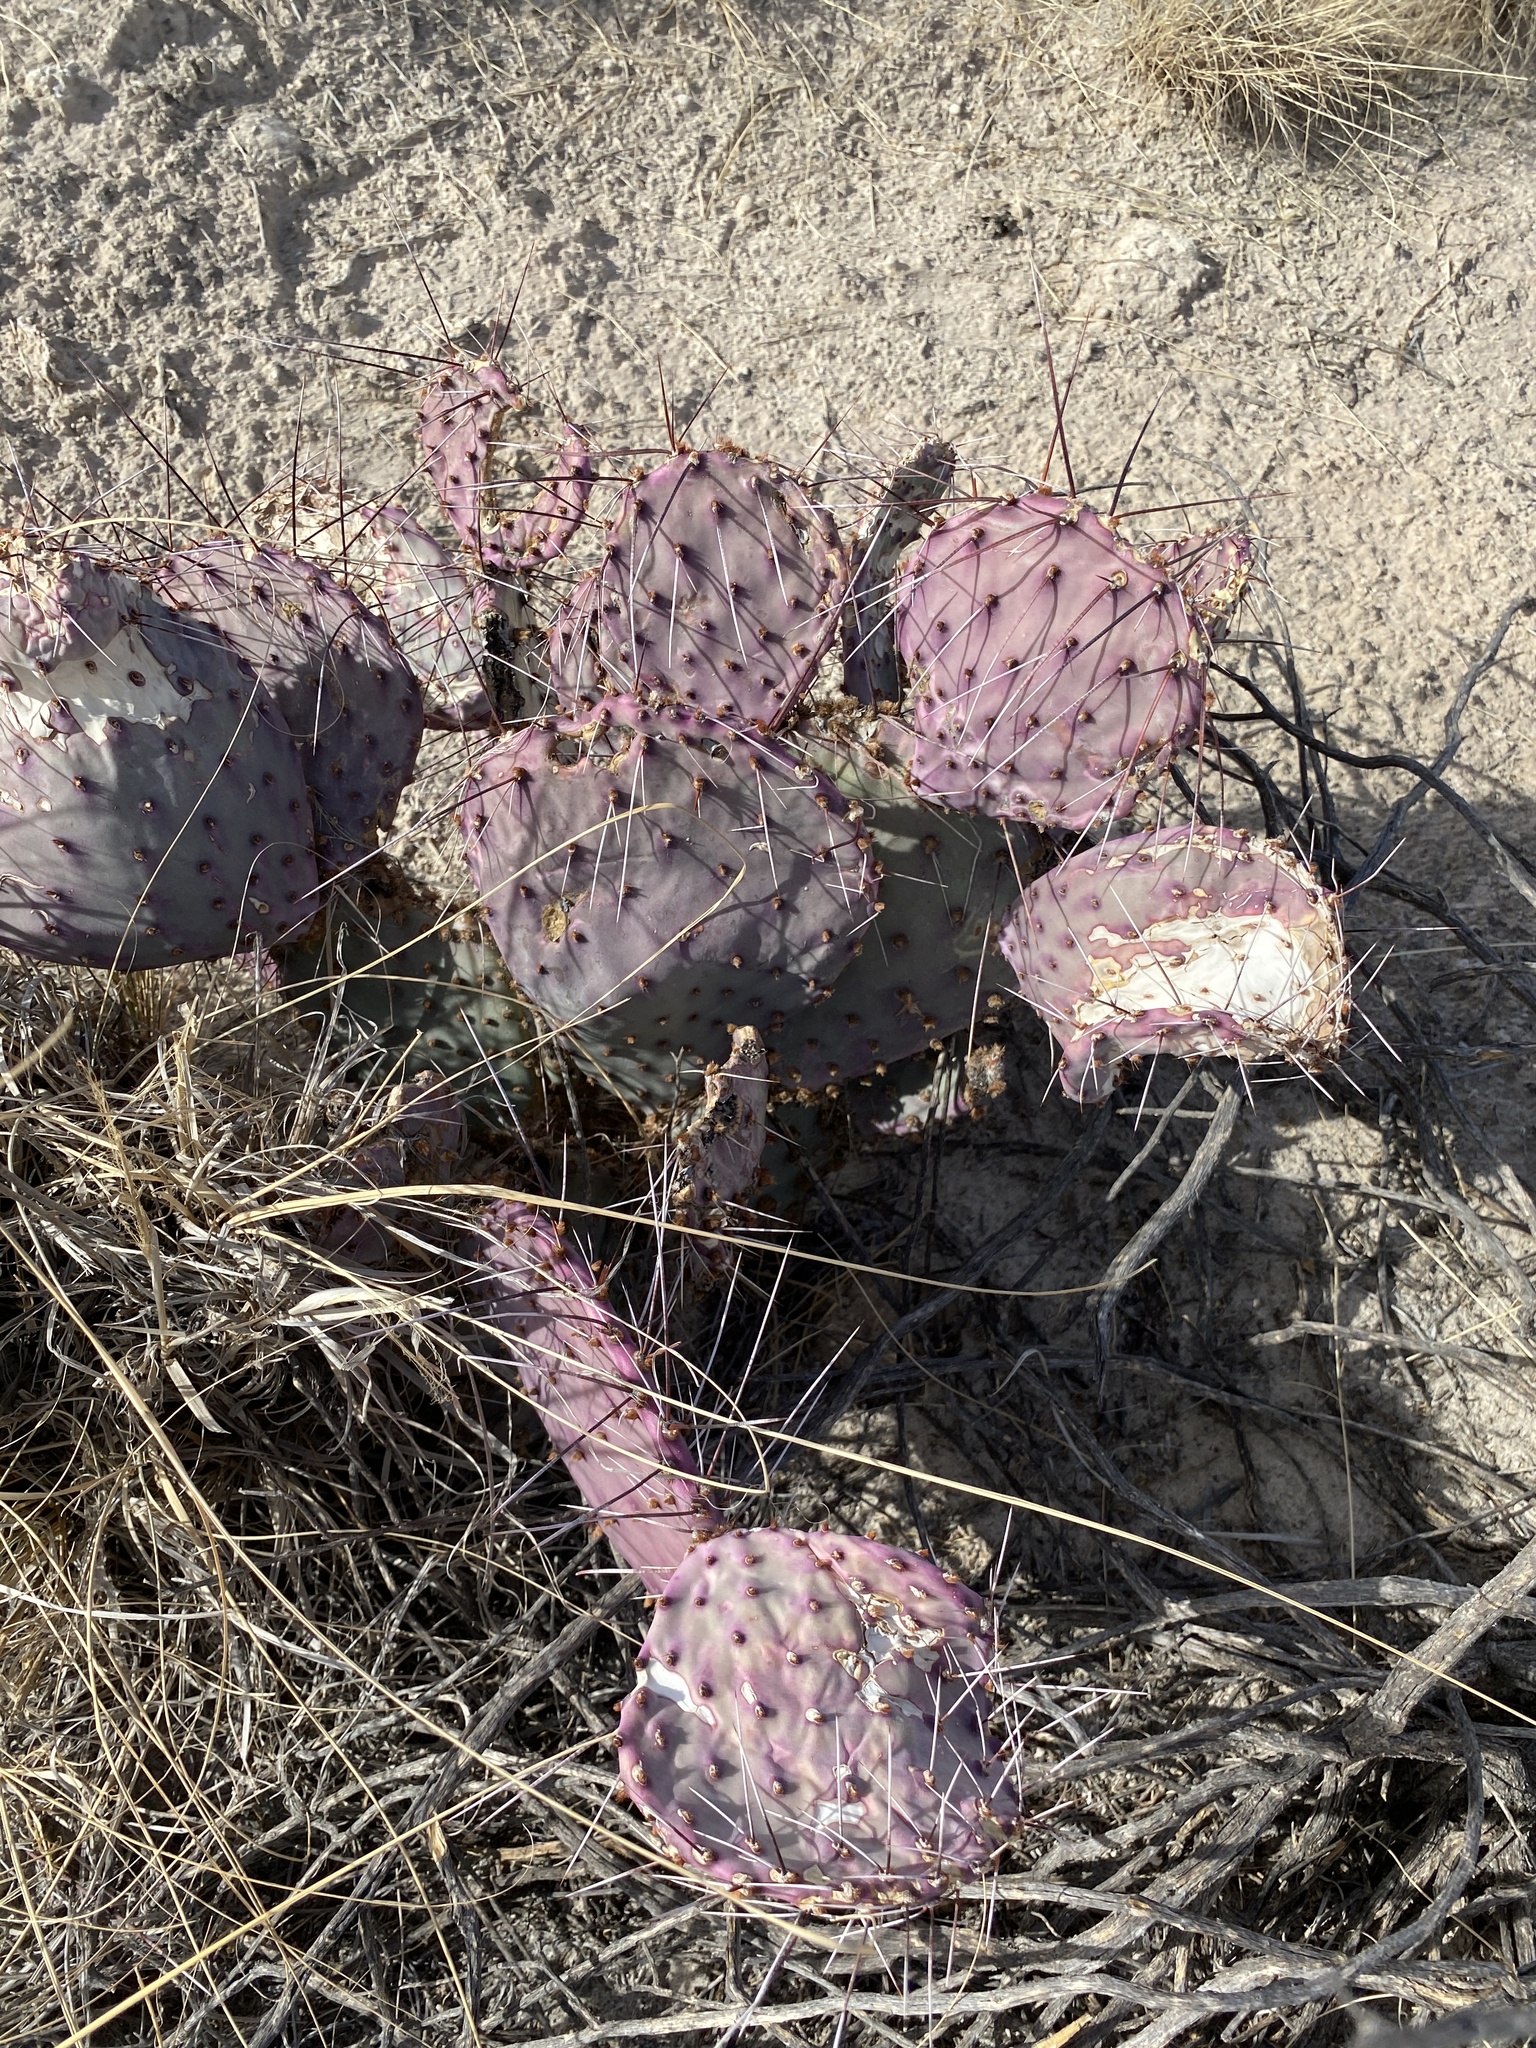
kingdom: Plantae
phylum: Tracheophyta
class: Magnoliopsida
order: Caryophyllales
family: Cactaceae
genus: Opuntia
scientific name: Opuntia macrocentra
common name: Purple prickly-pear
